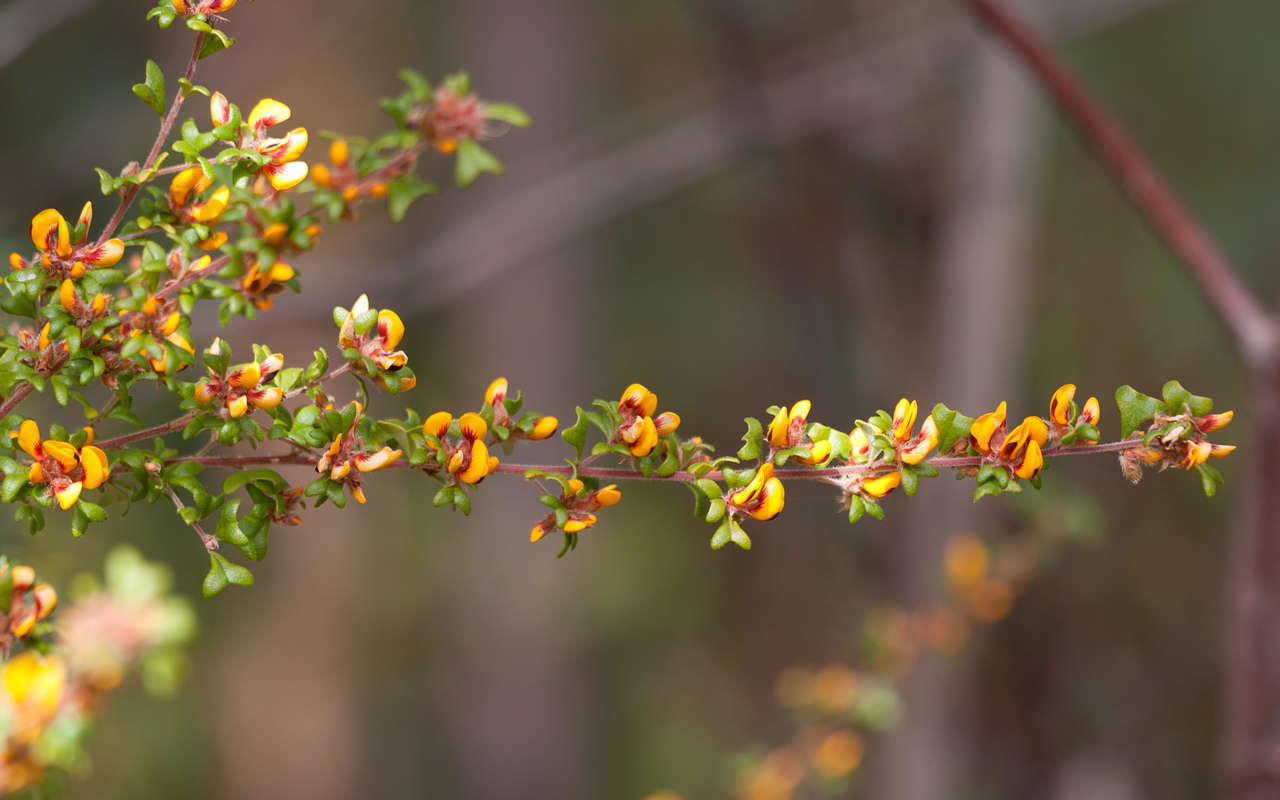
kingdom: Plantae
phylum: Tracheophyta
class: Magnoliopsida
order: Fabales
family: Fabaceae
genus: Pultenaea
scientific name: Pultenaea scabra
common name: Rough bush-pea
